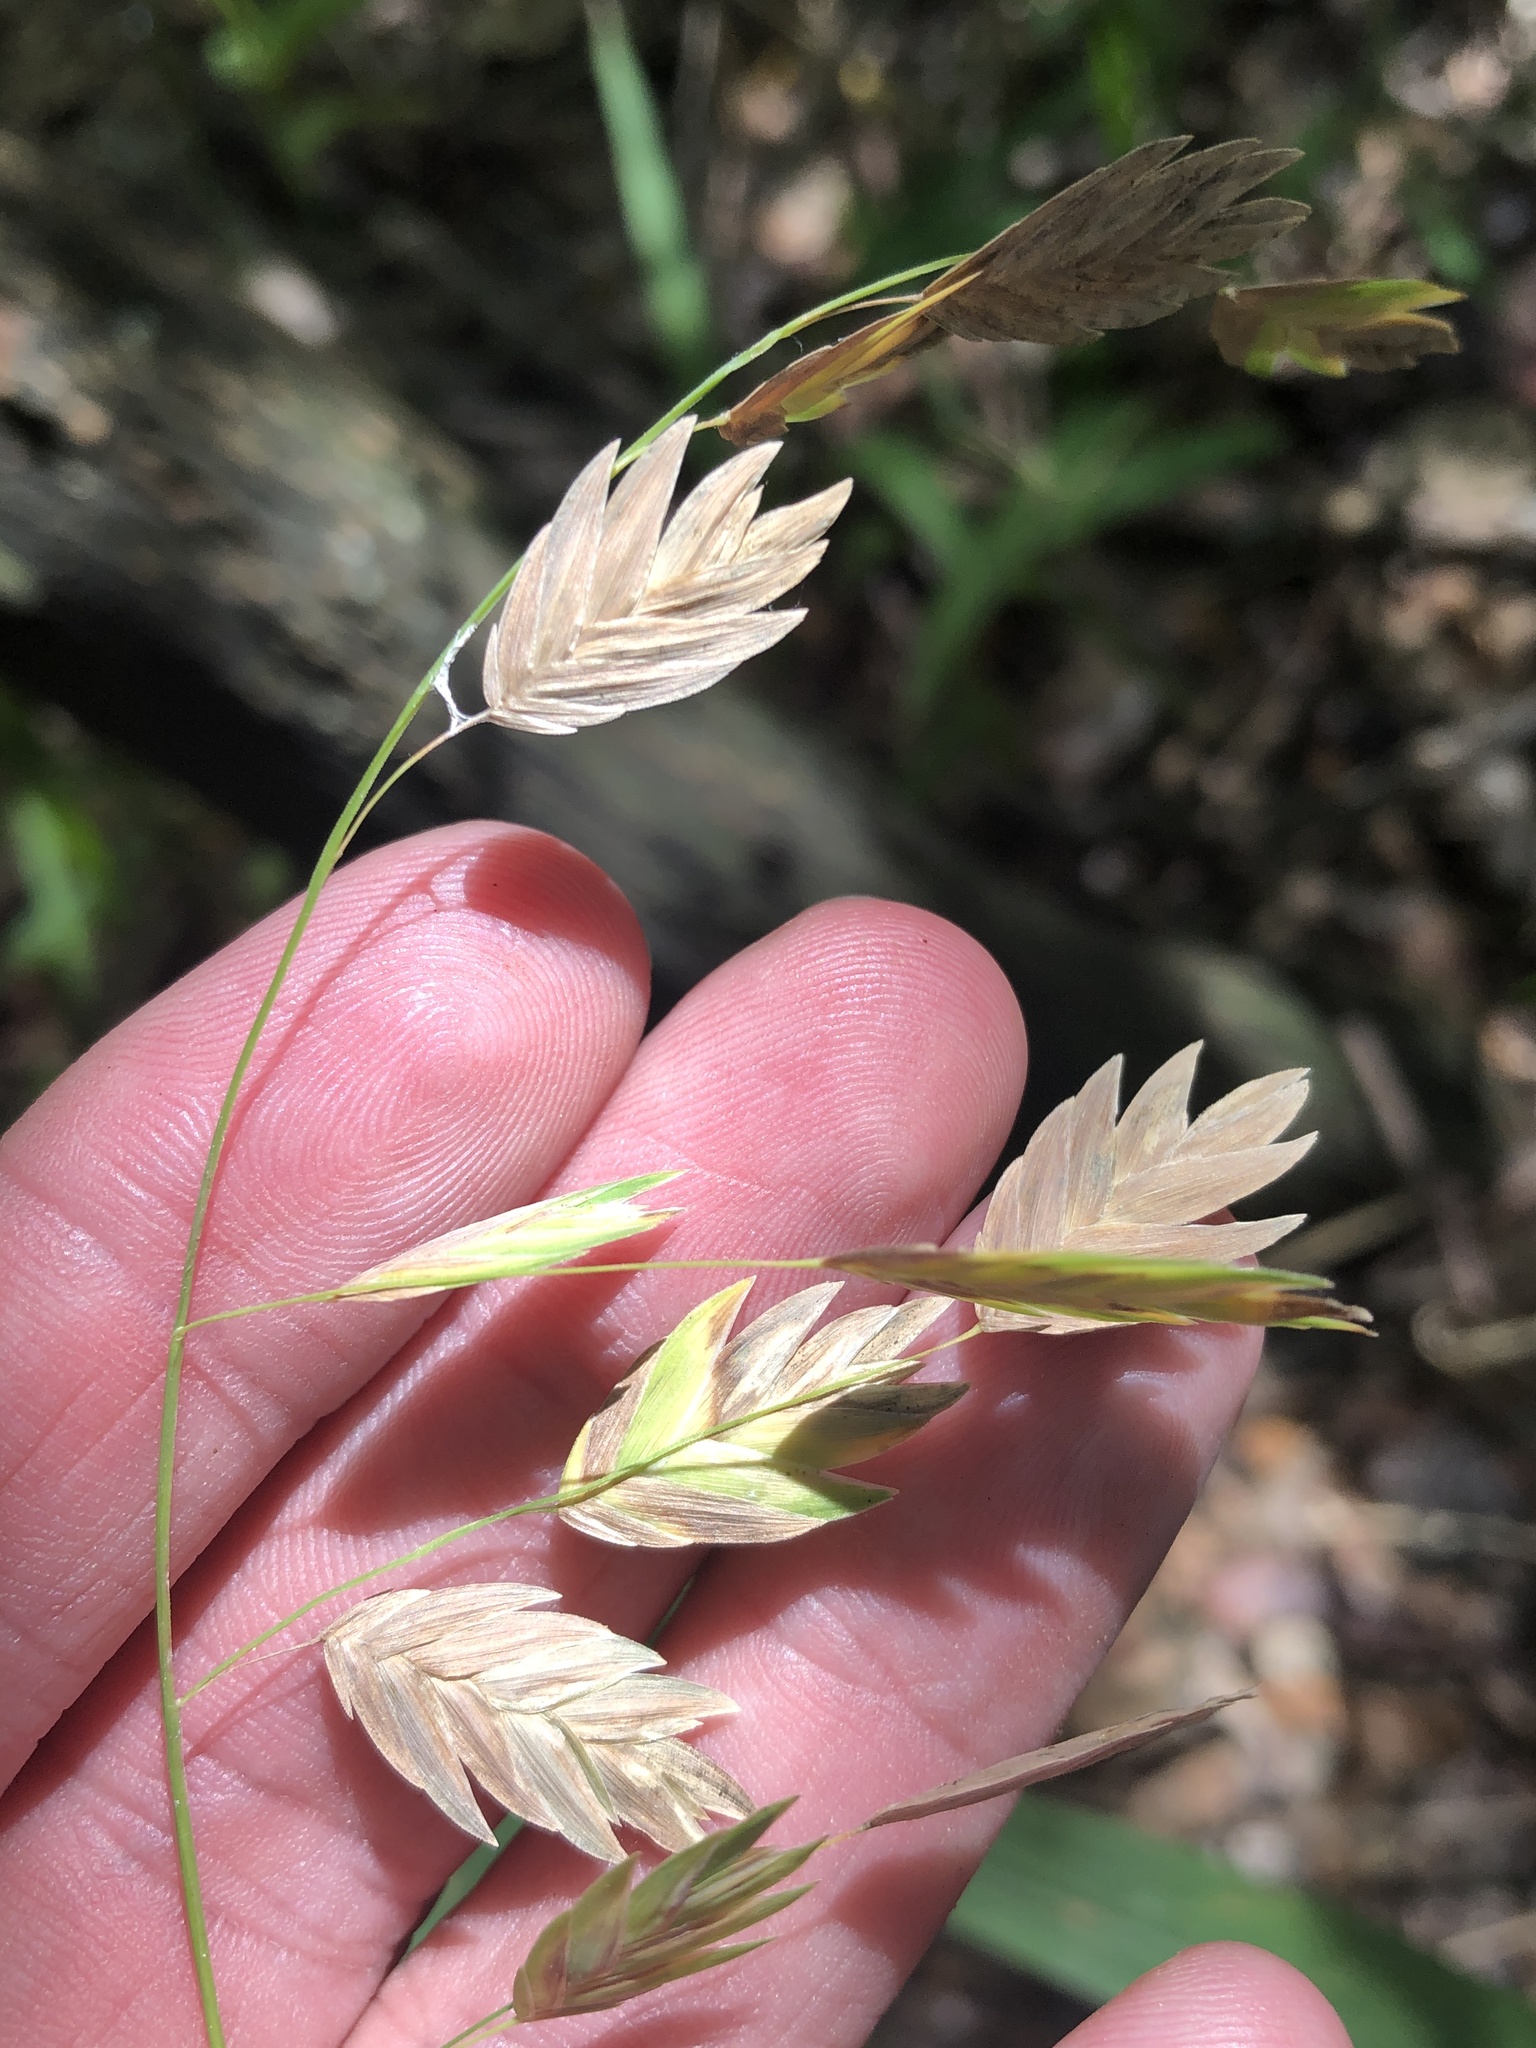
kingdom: Plantae
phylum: Tracheophyta
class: Liliopsida
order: Poales
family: Poaceae
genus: Chasmanthium
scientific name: Chasmanthium latifolium
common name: Broad-leaved chasmanthium
